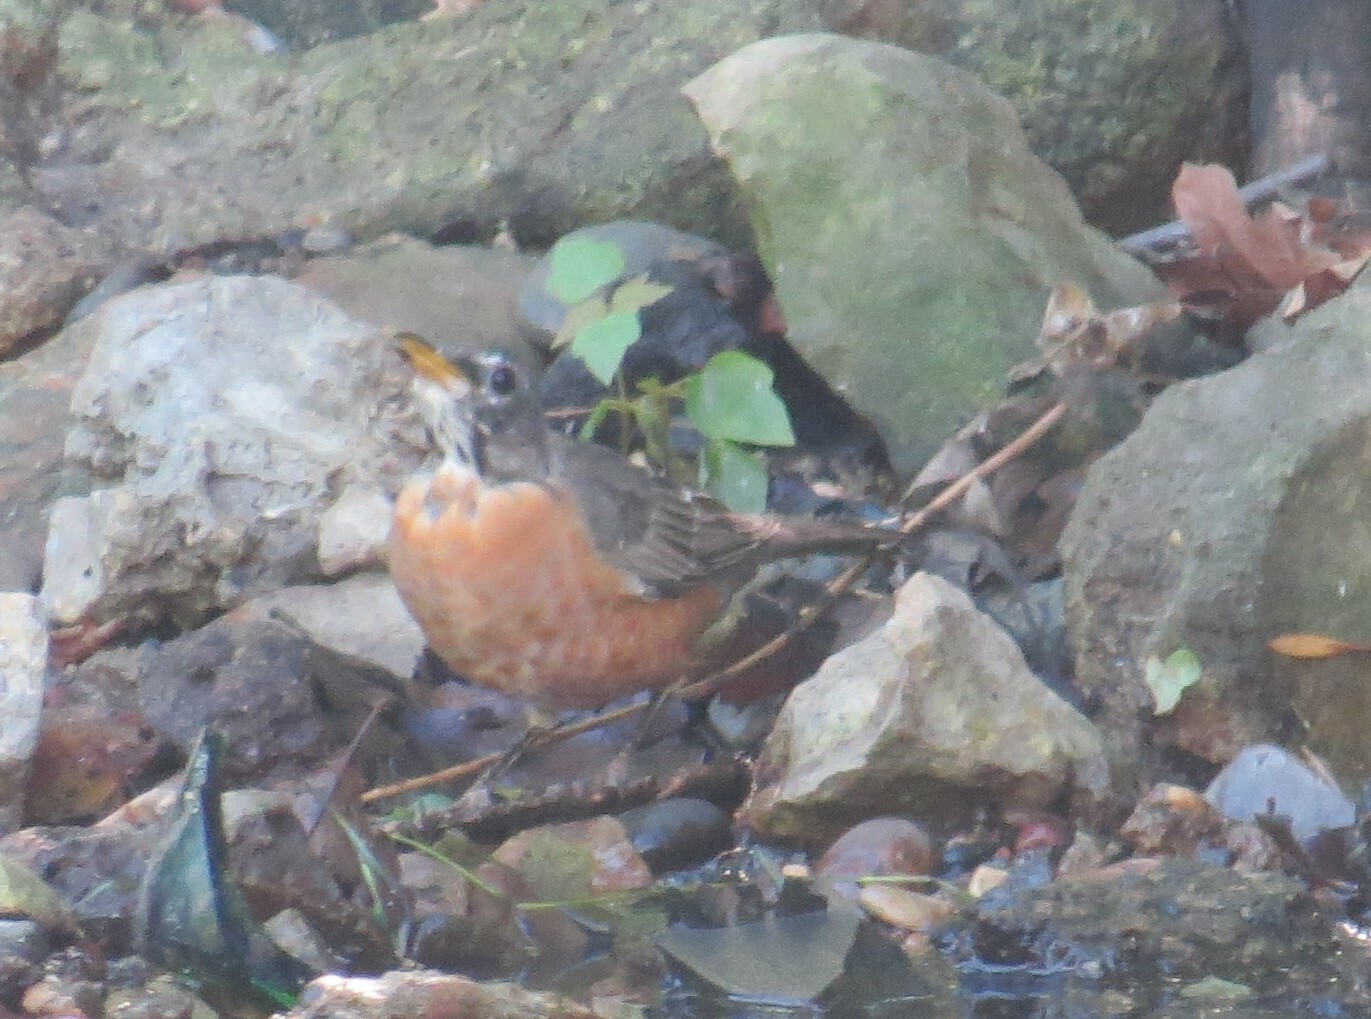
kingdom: Animalia
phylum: Chordata
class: Aves
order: Passeriformes
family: Turdidae
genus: Turdus
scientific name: Turdus migratorius
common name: American robin
